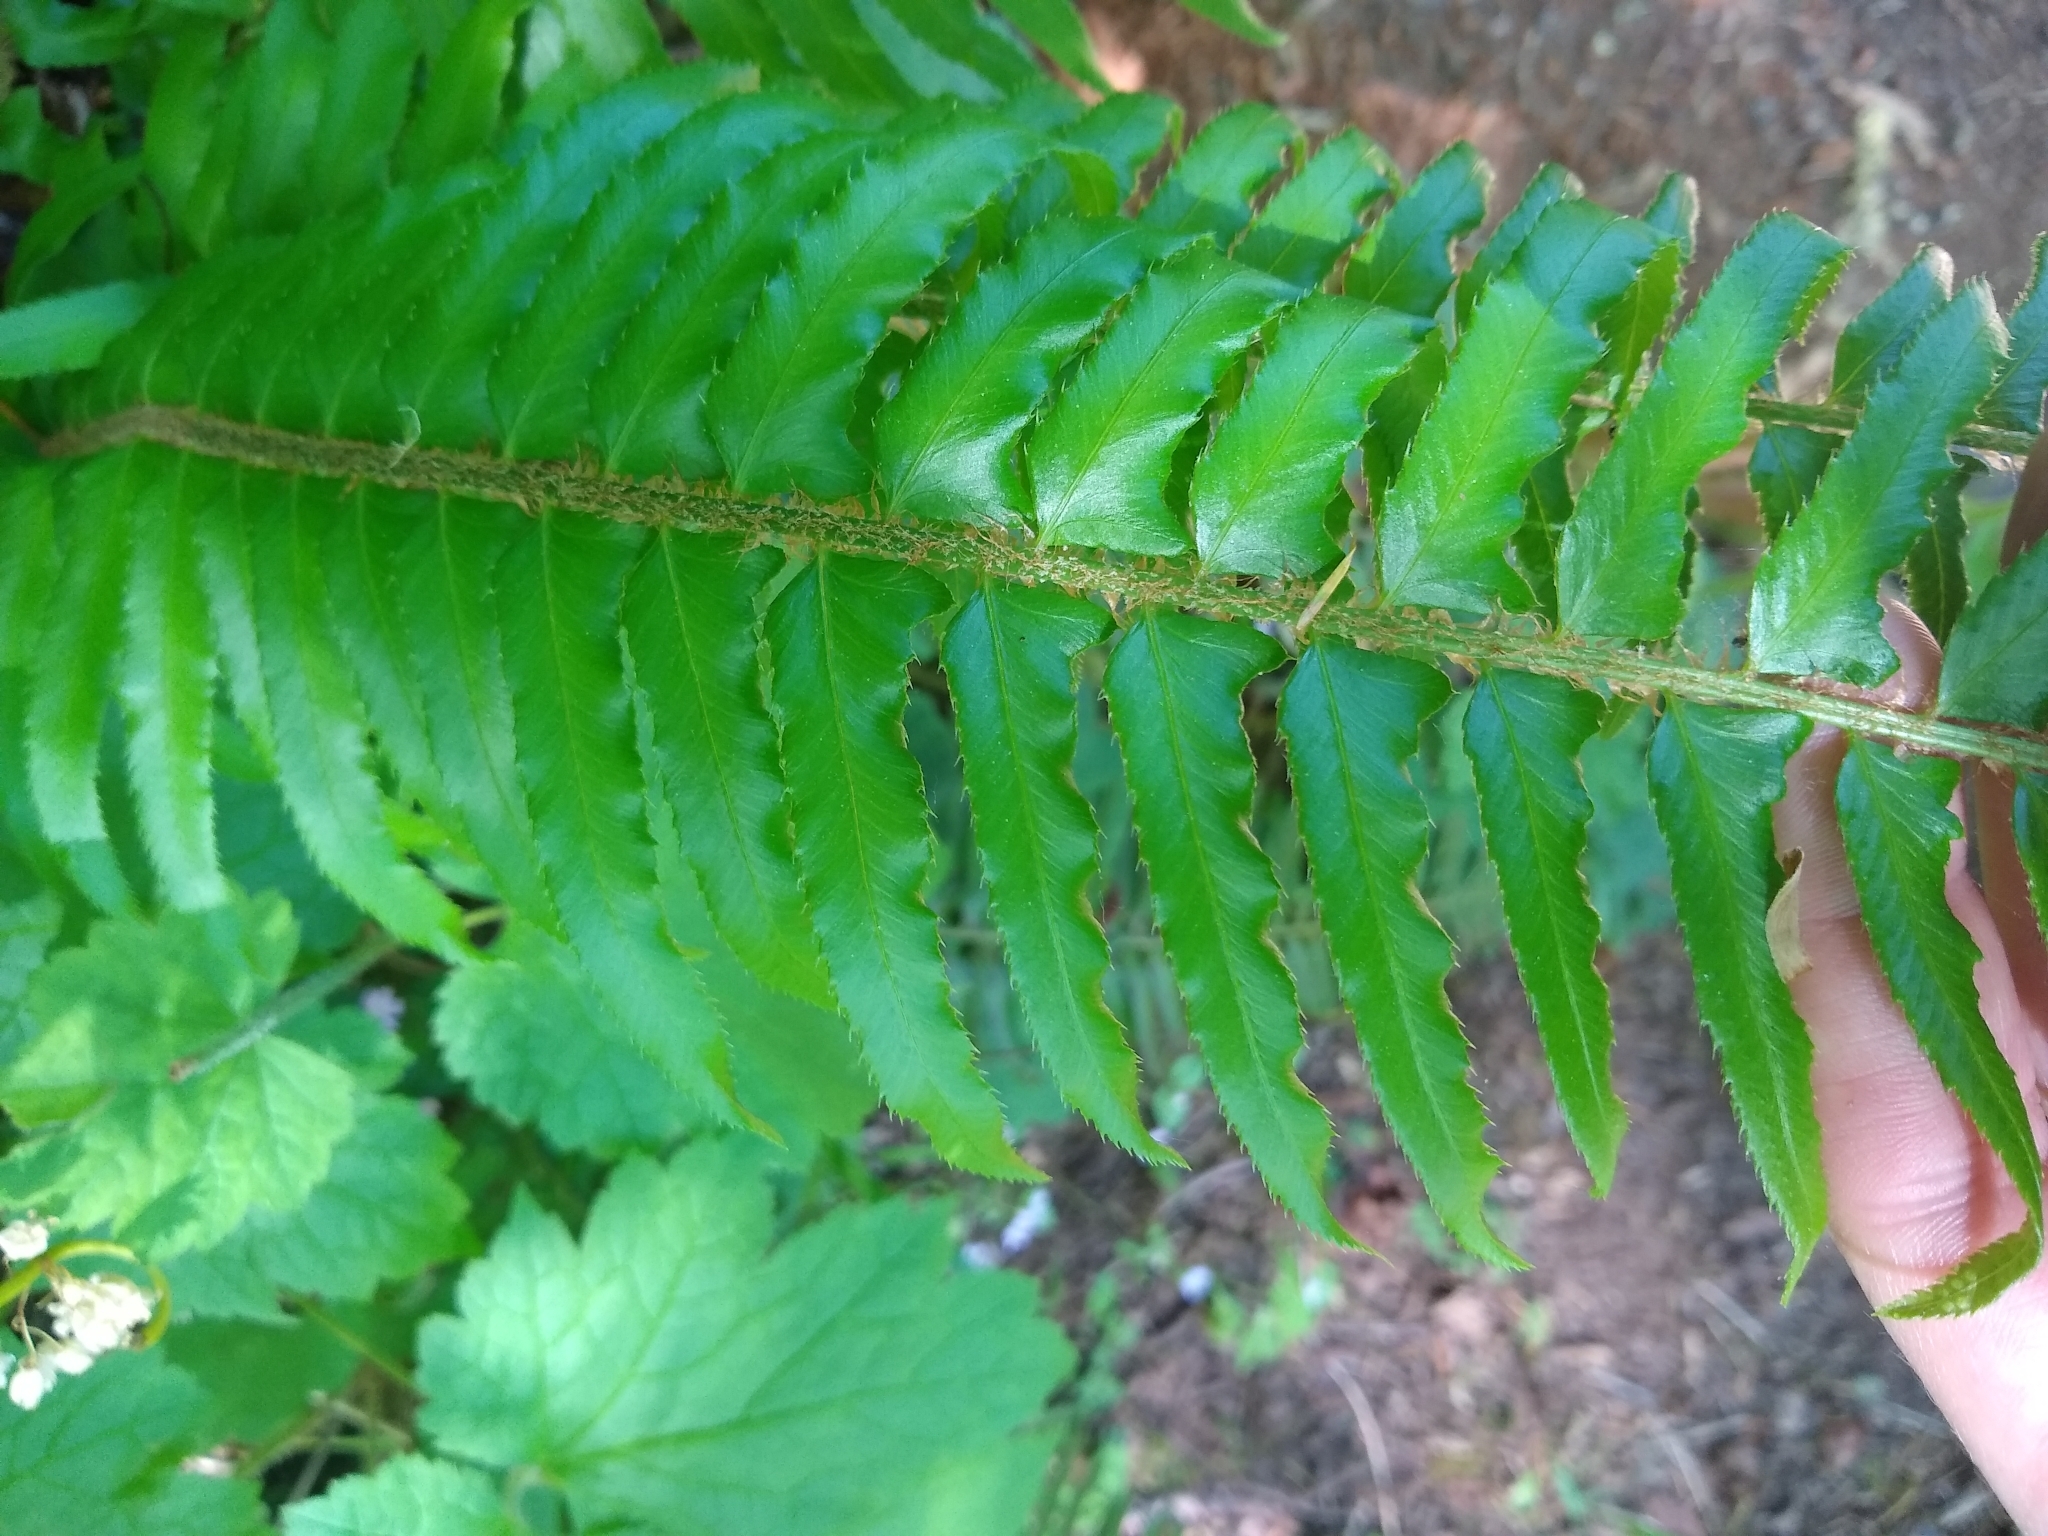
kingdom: Plantae
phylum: Tracheophyta
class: Polypodiopsida
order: Polypodiales
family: Dryopteridaceae
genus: Polystichum
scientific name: Polystichum munitum
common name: Western sword-fern
